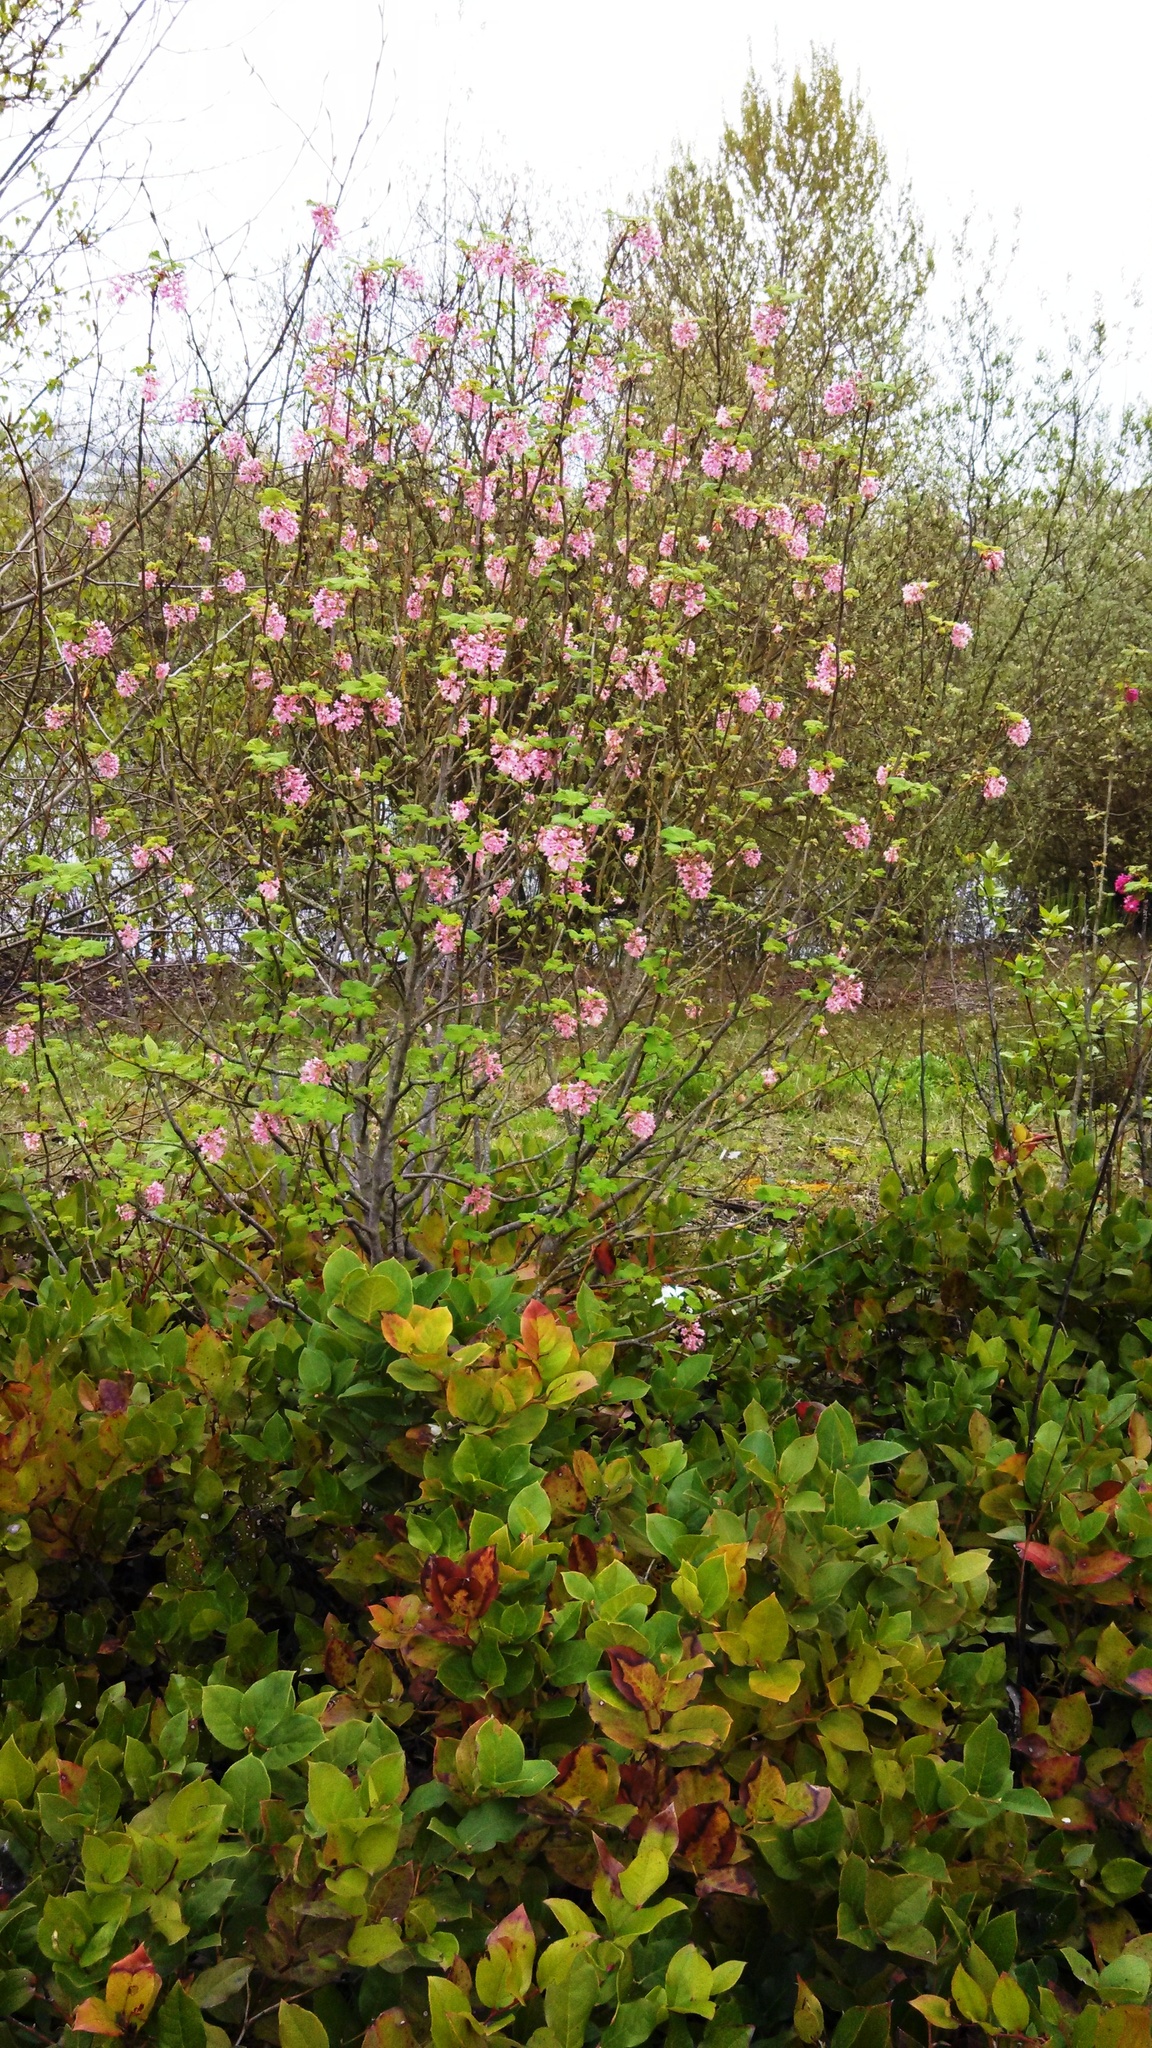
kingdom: Plantae
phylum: Tracheophyta
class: Magnoliopsida
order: Saxifragales
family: Grossulariaceae
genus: Ribes
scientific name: Ribes sanguineum
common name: Flowering currant
